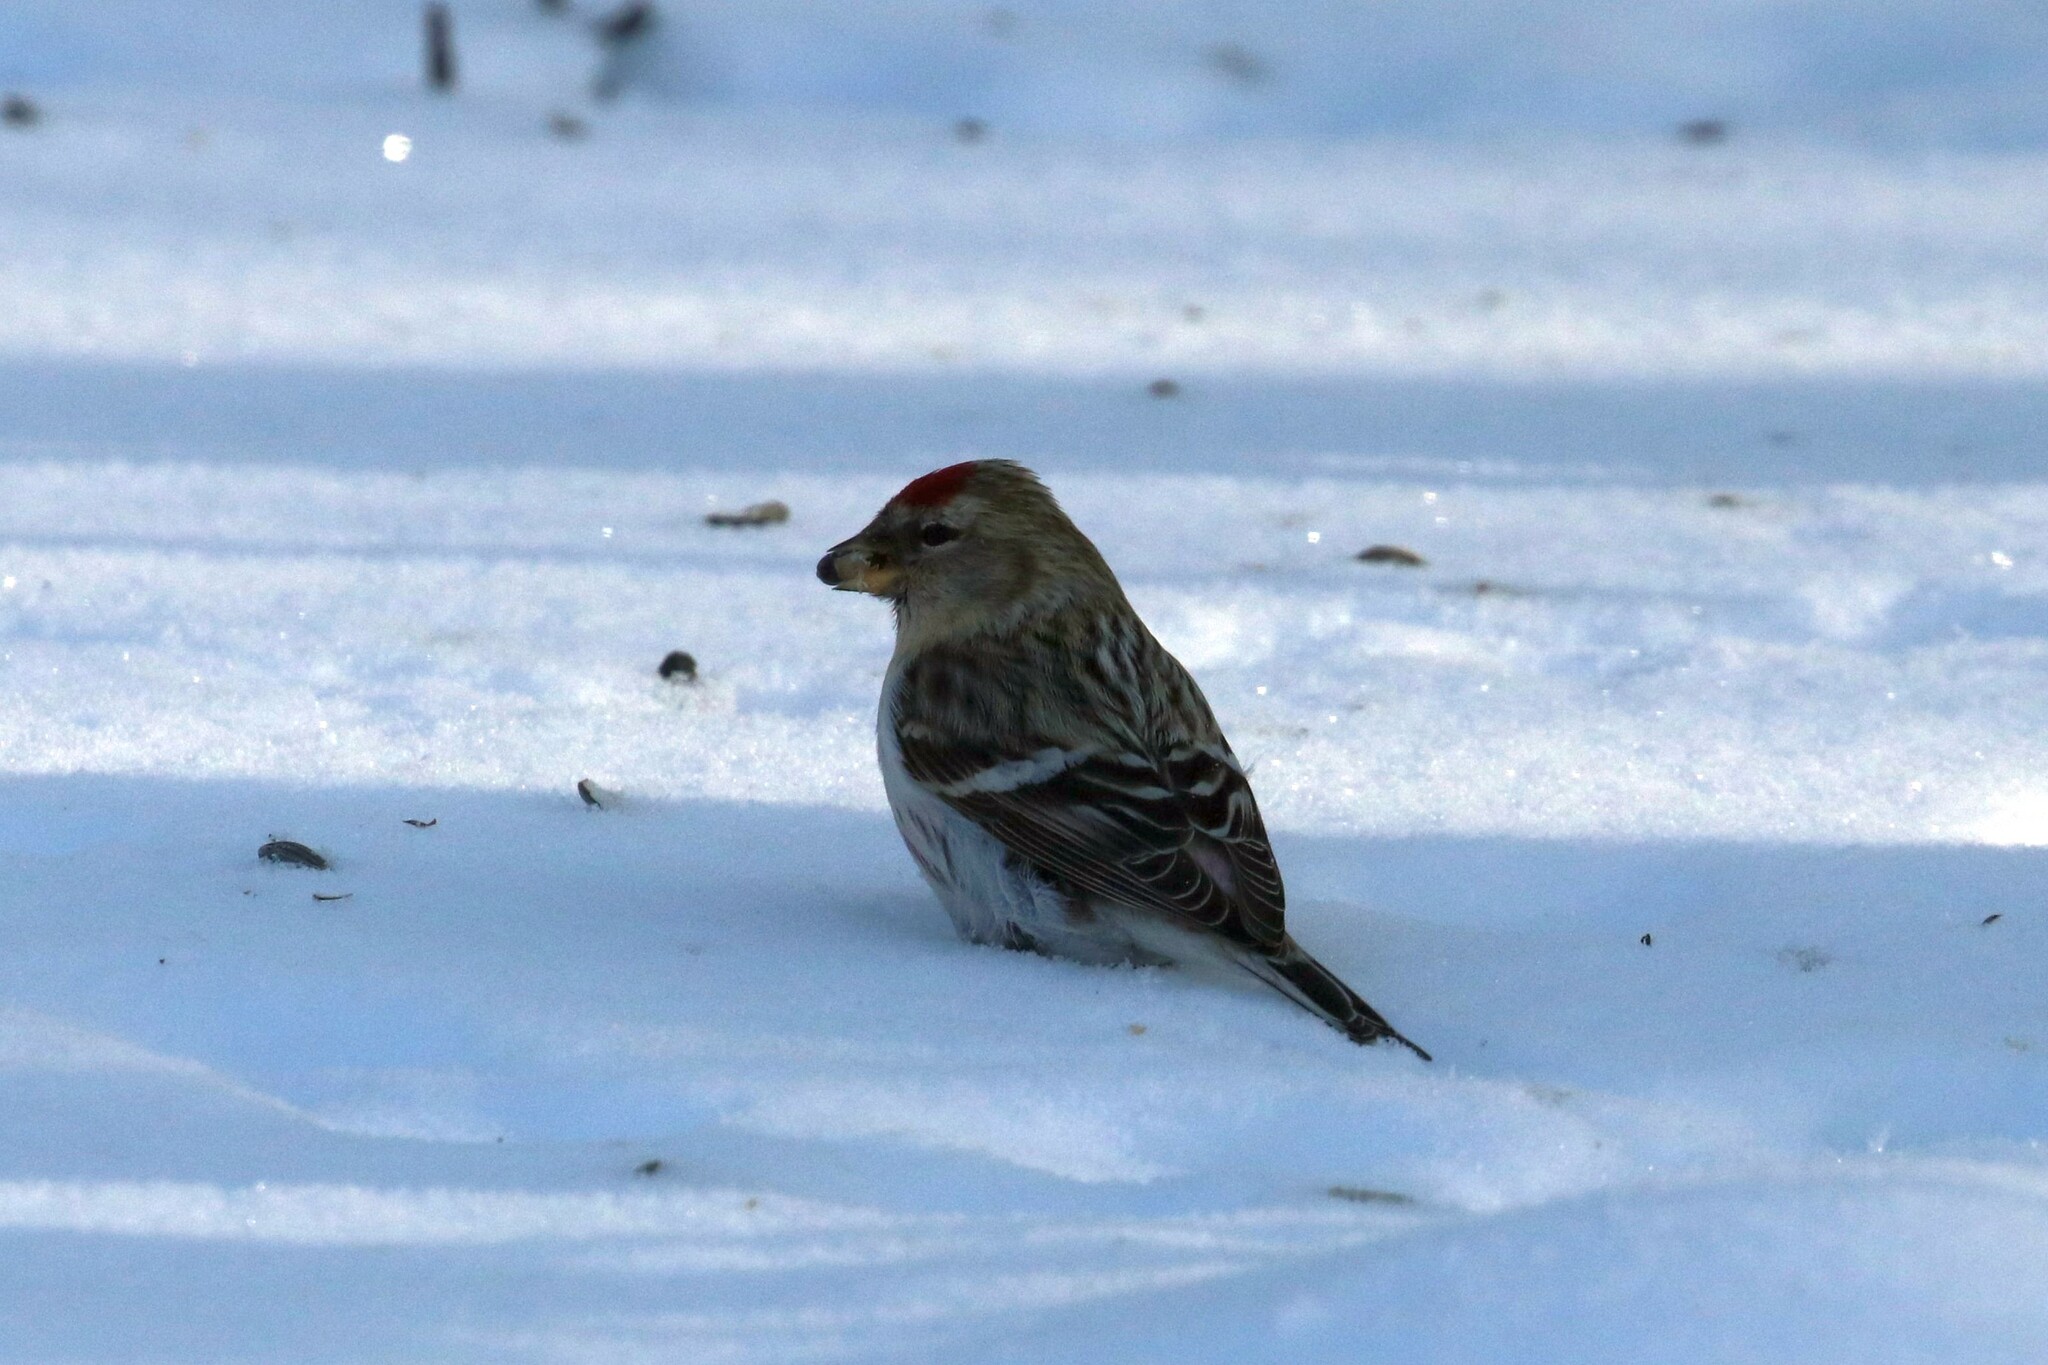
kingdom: Animalia
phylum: Chordata
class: Aves
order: Passeriformes
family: Fringillidae
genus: Acanthis
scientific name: Acanthis flammea
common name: Common redpoll
